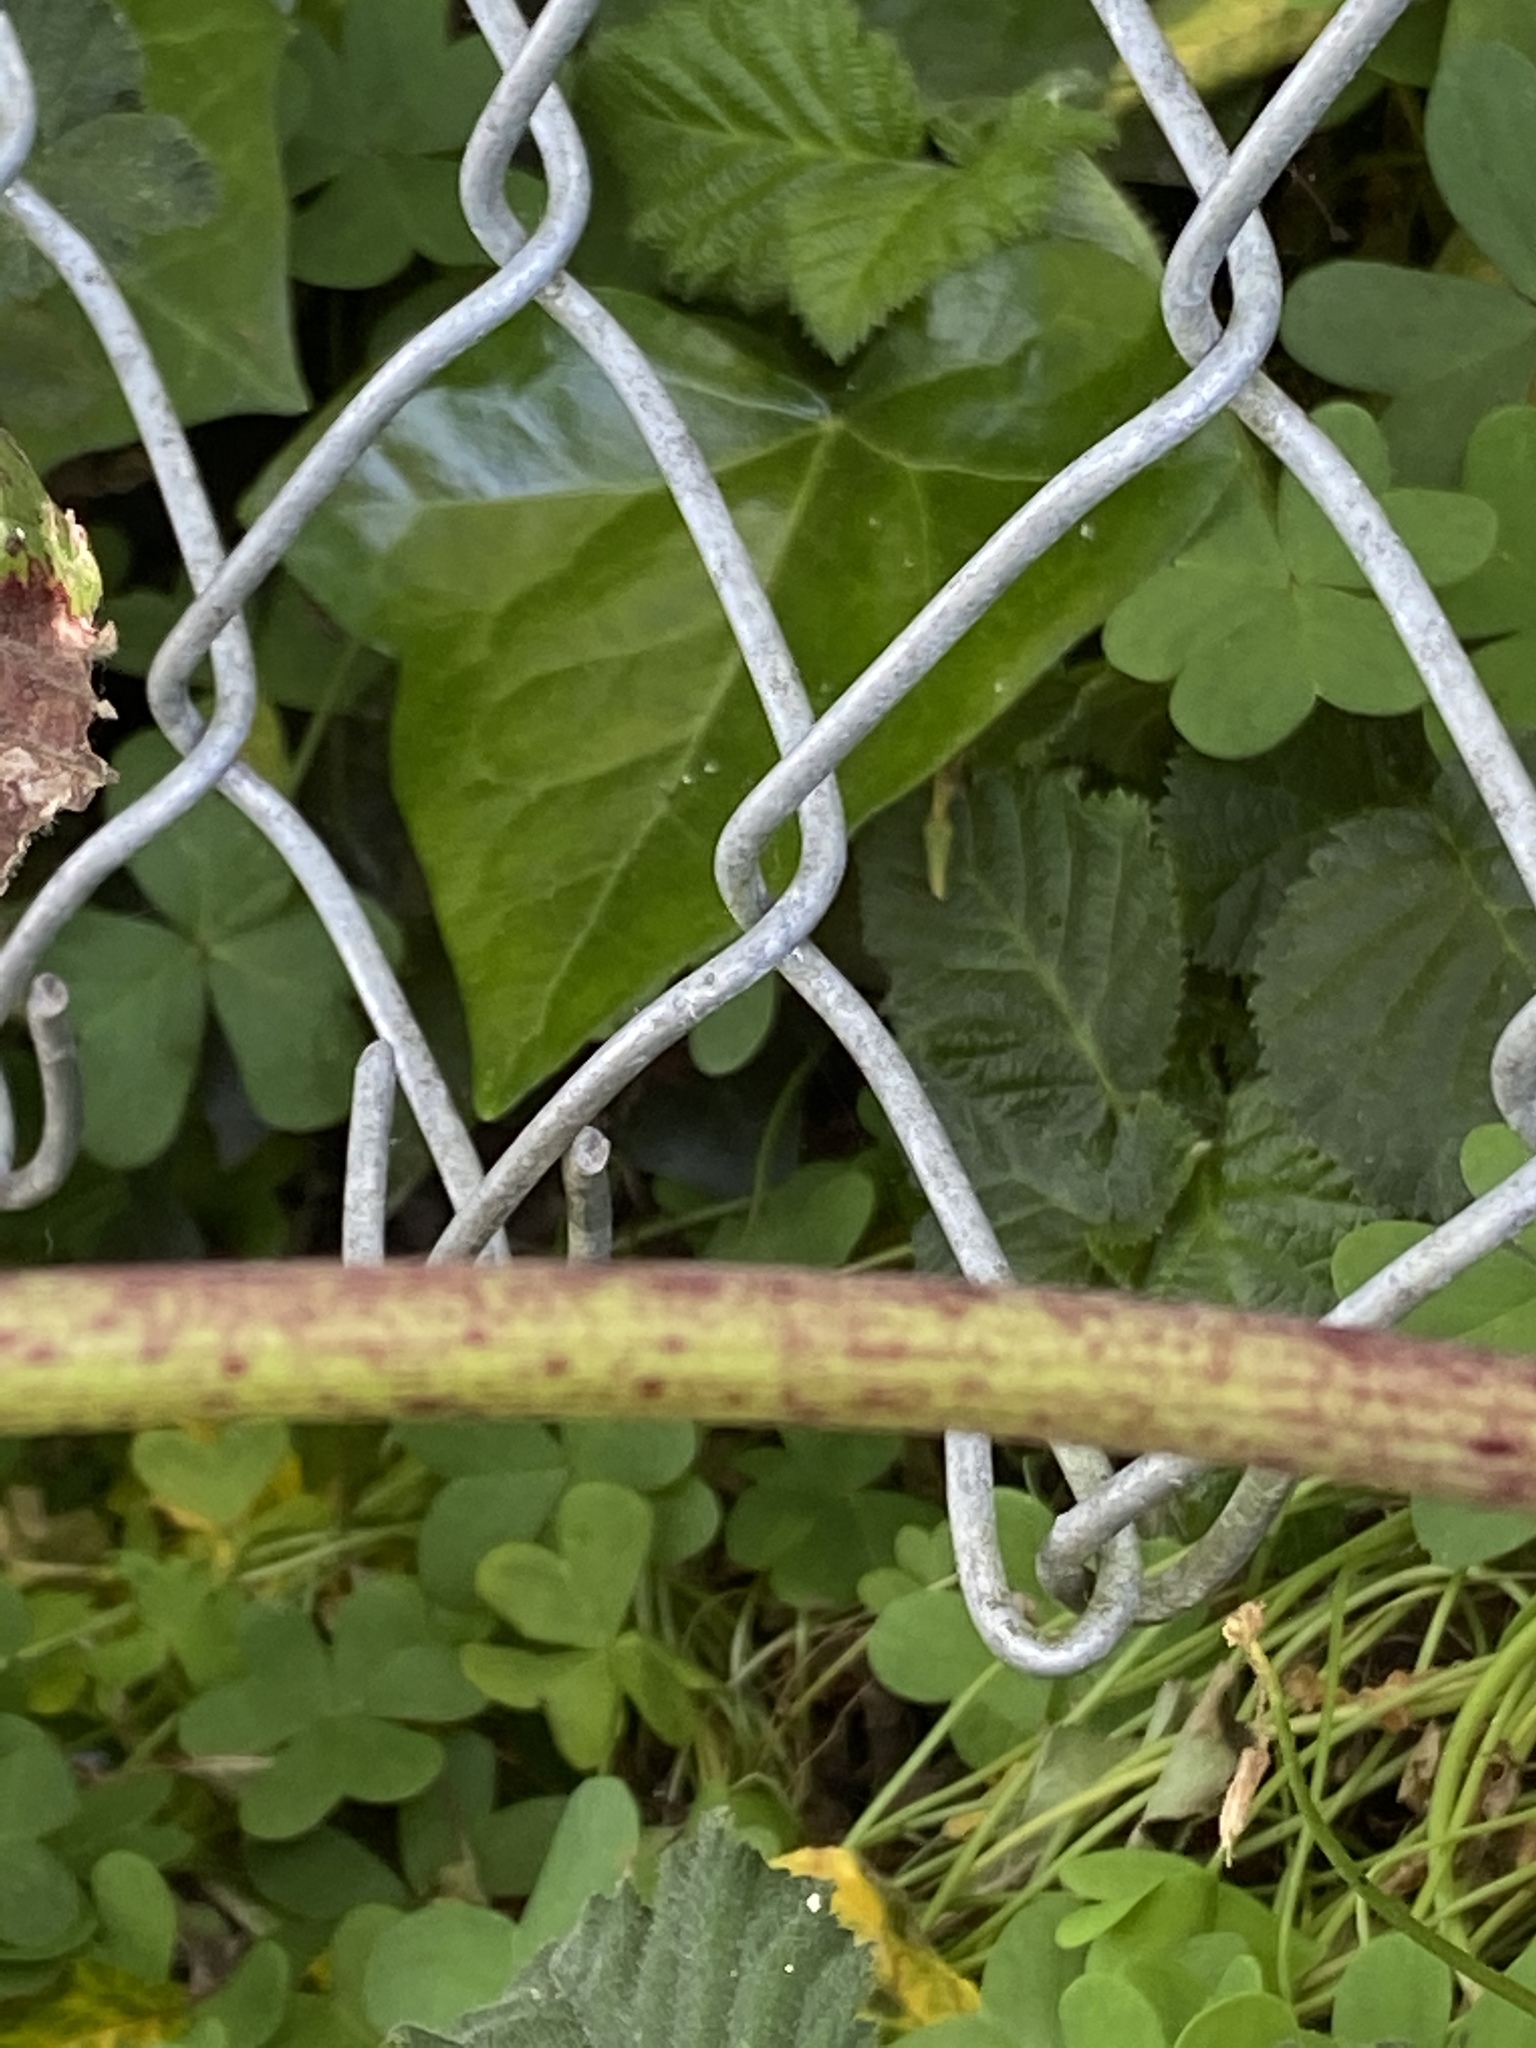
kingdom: Plantae
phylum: Tracheophyta
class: Magnoliopsida
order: Apiales
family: Apiaceae
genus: Conium
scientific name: Conium maculatum
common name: Hemlock
